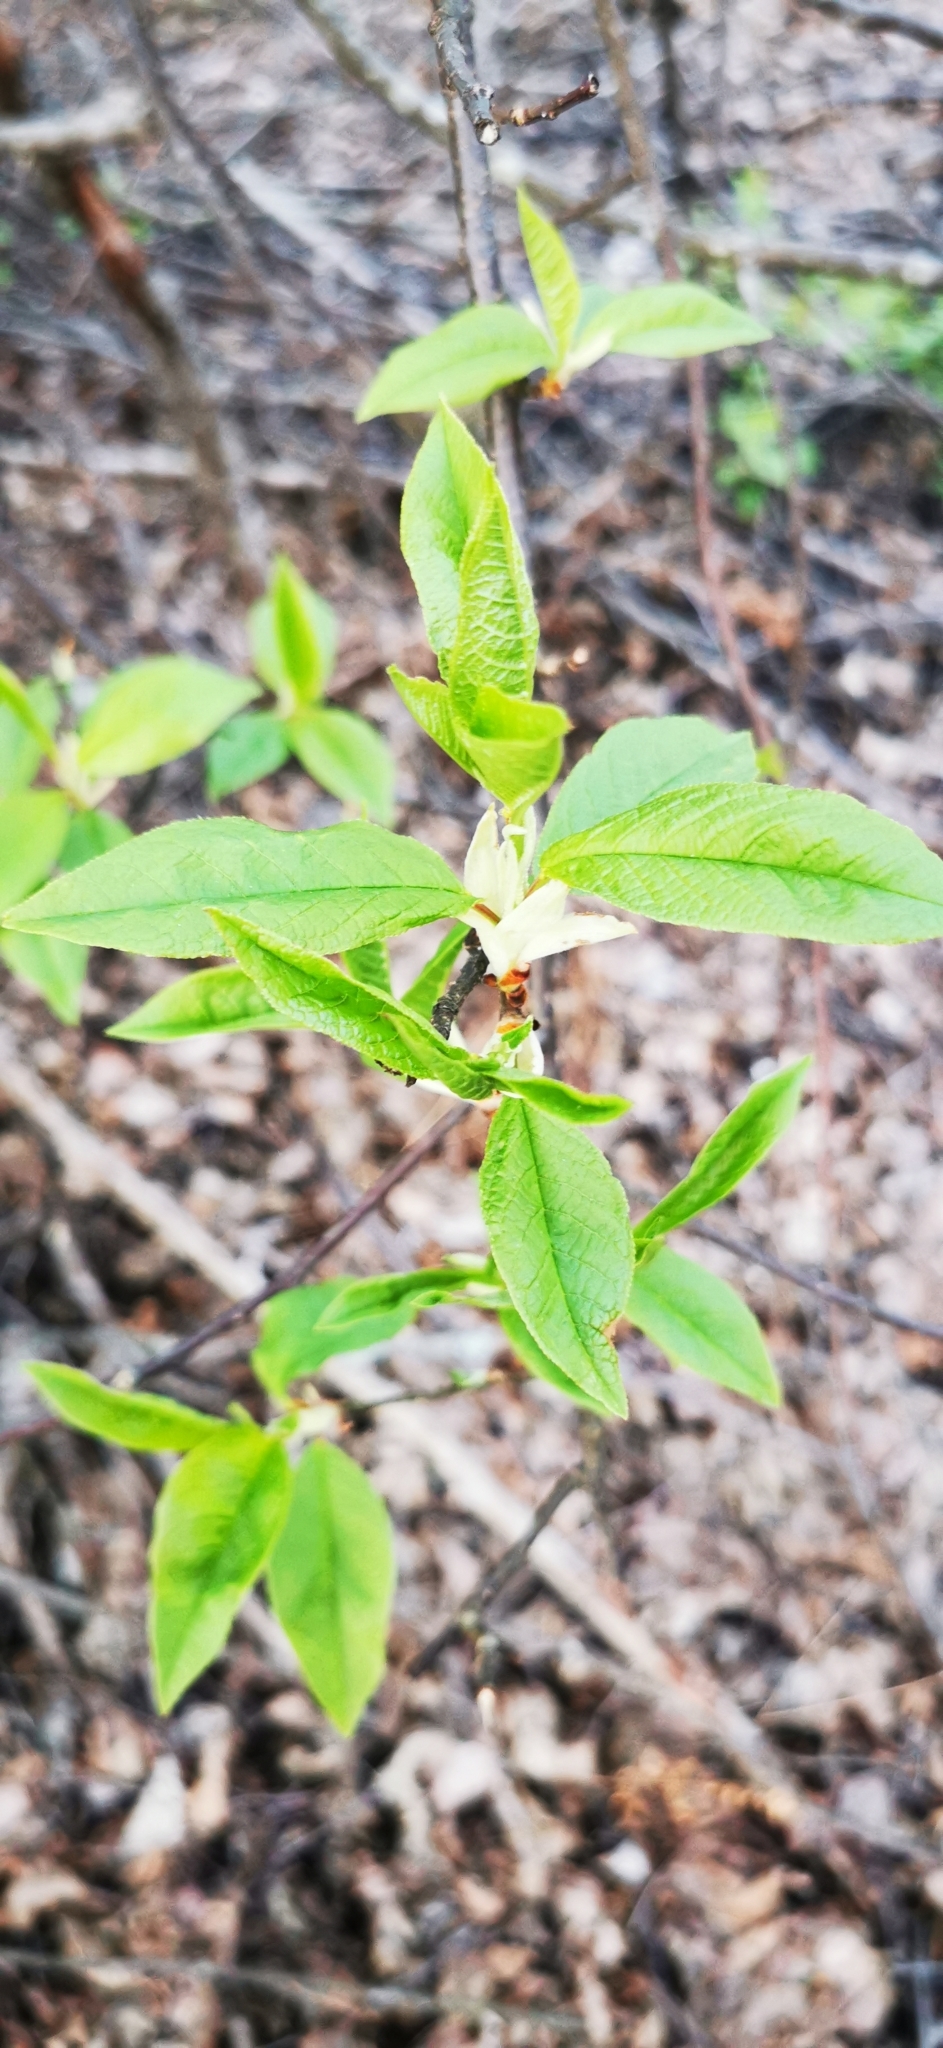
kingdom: Plantae
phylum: Tracheophyta
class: Magnoliopsida
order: Rosales
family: Rosaceae
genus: Prunus
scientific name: Prunus padus
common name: Bird cherry
